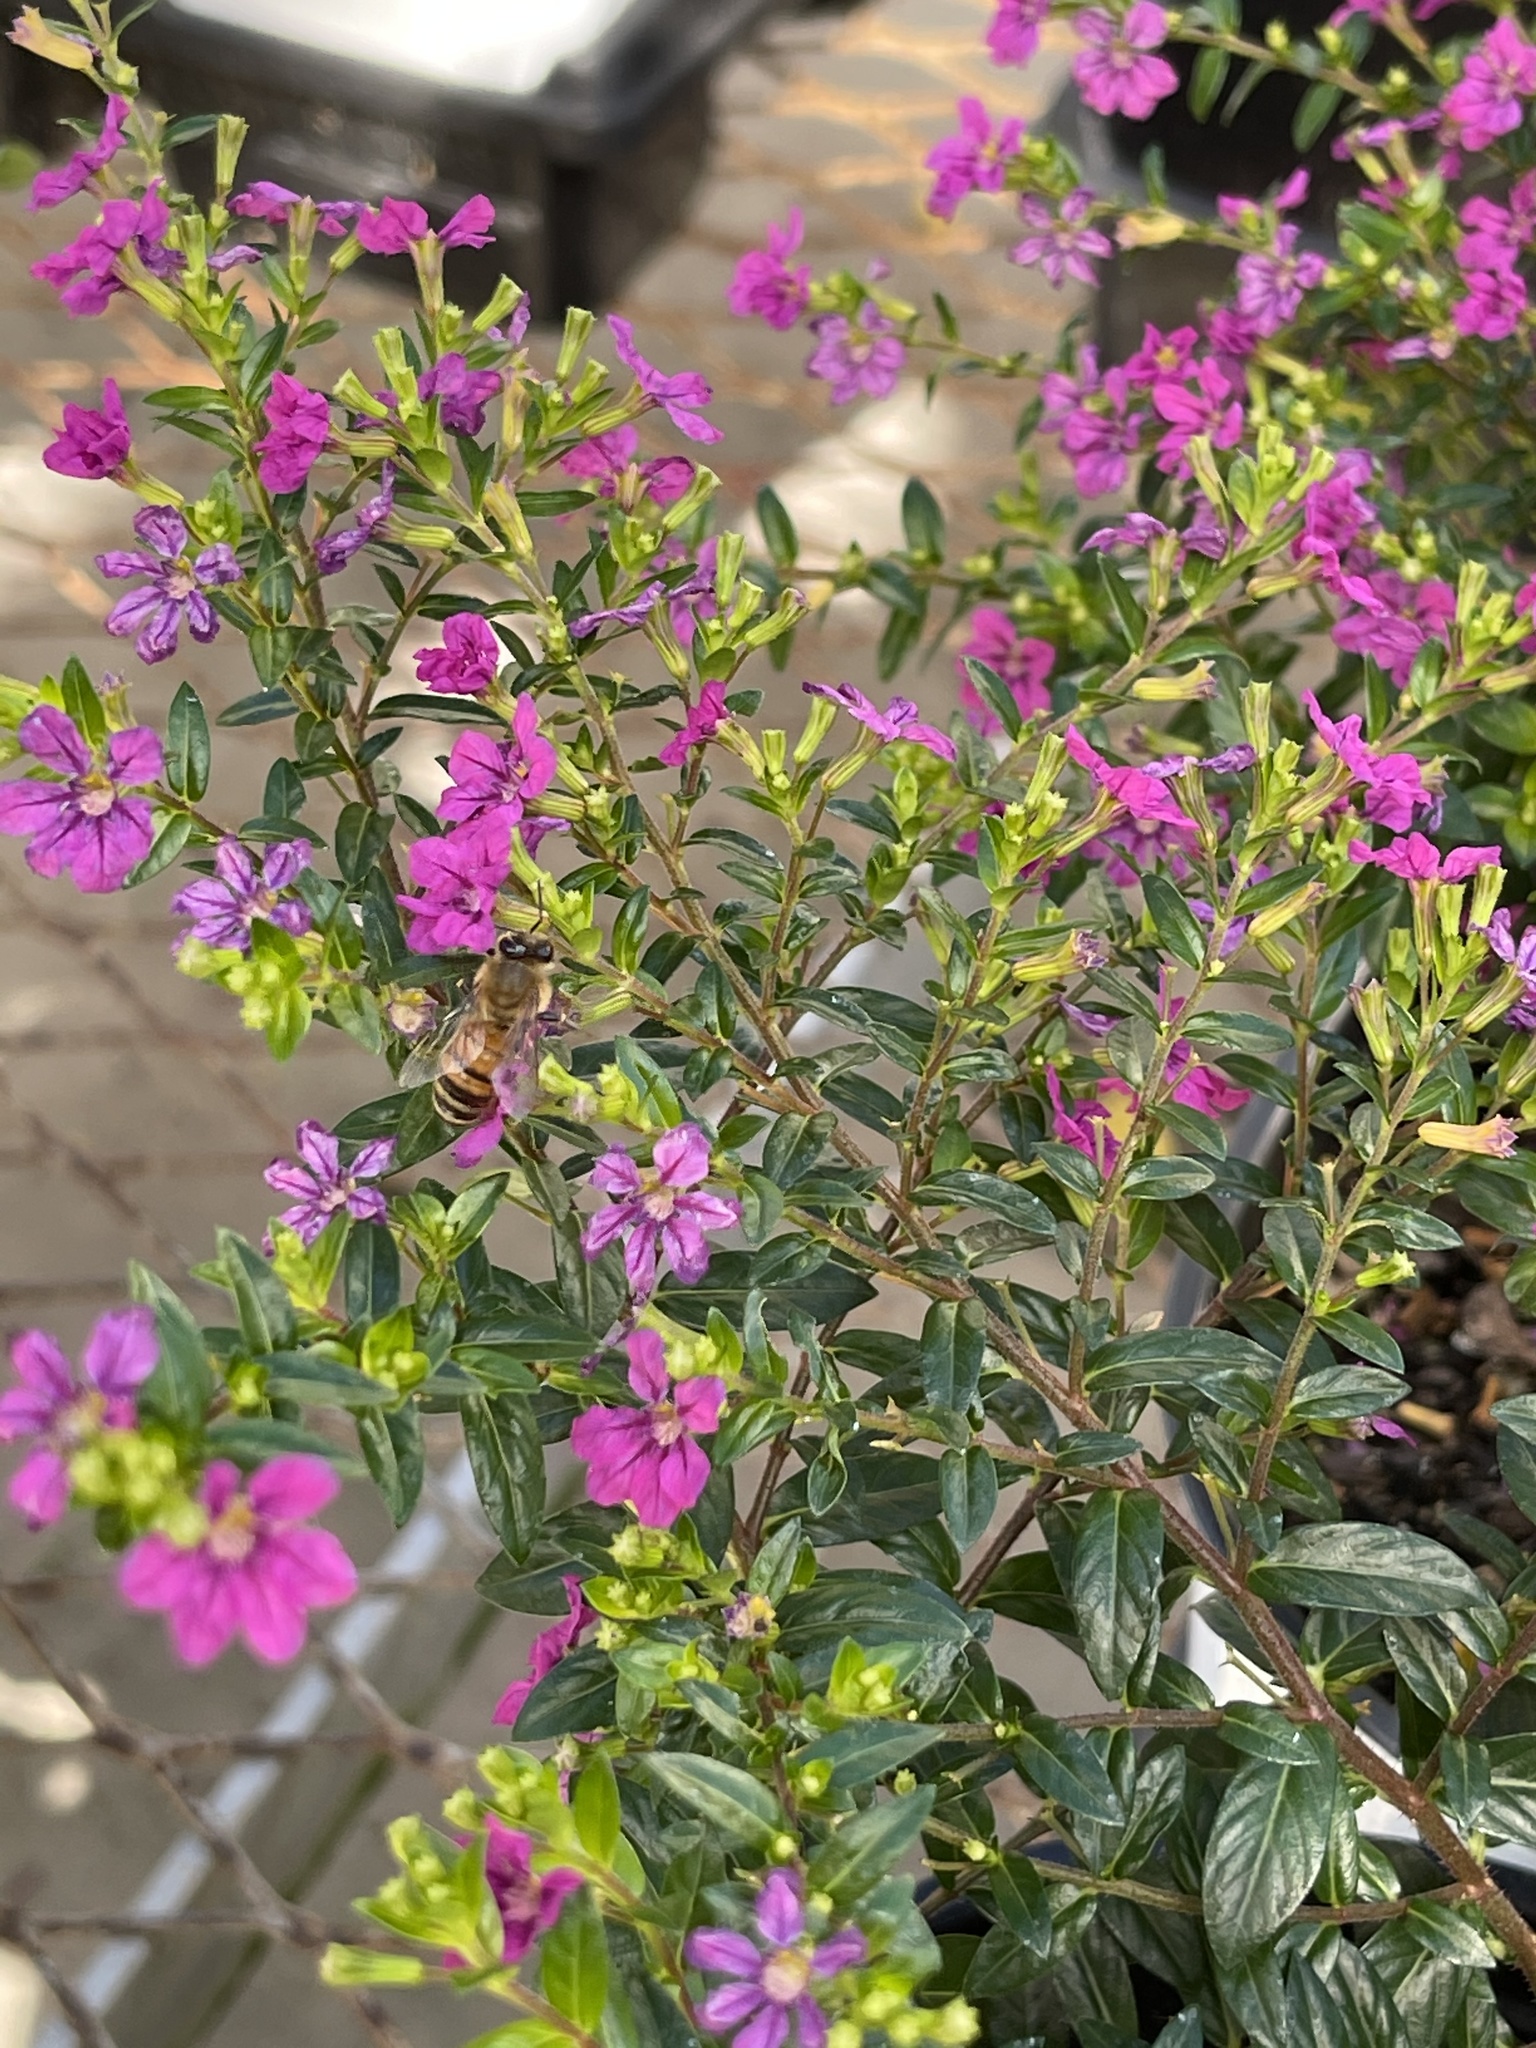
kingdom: Animalia
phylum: Arthropoda
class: Insecta
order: Hymenoptera
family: Apidae
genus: Apis
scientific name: Apis mellifera
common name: Honey bee
